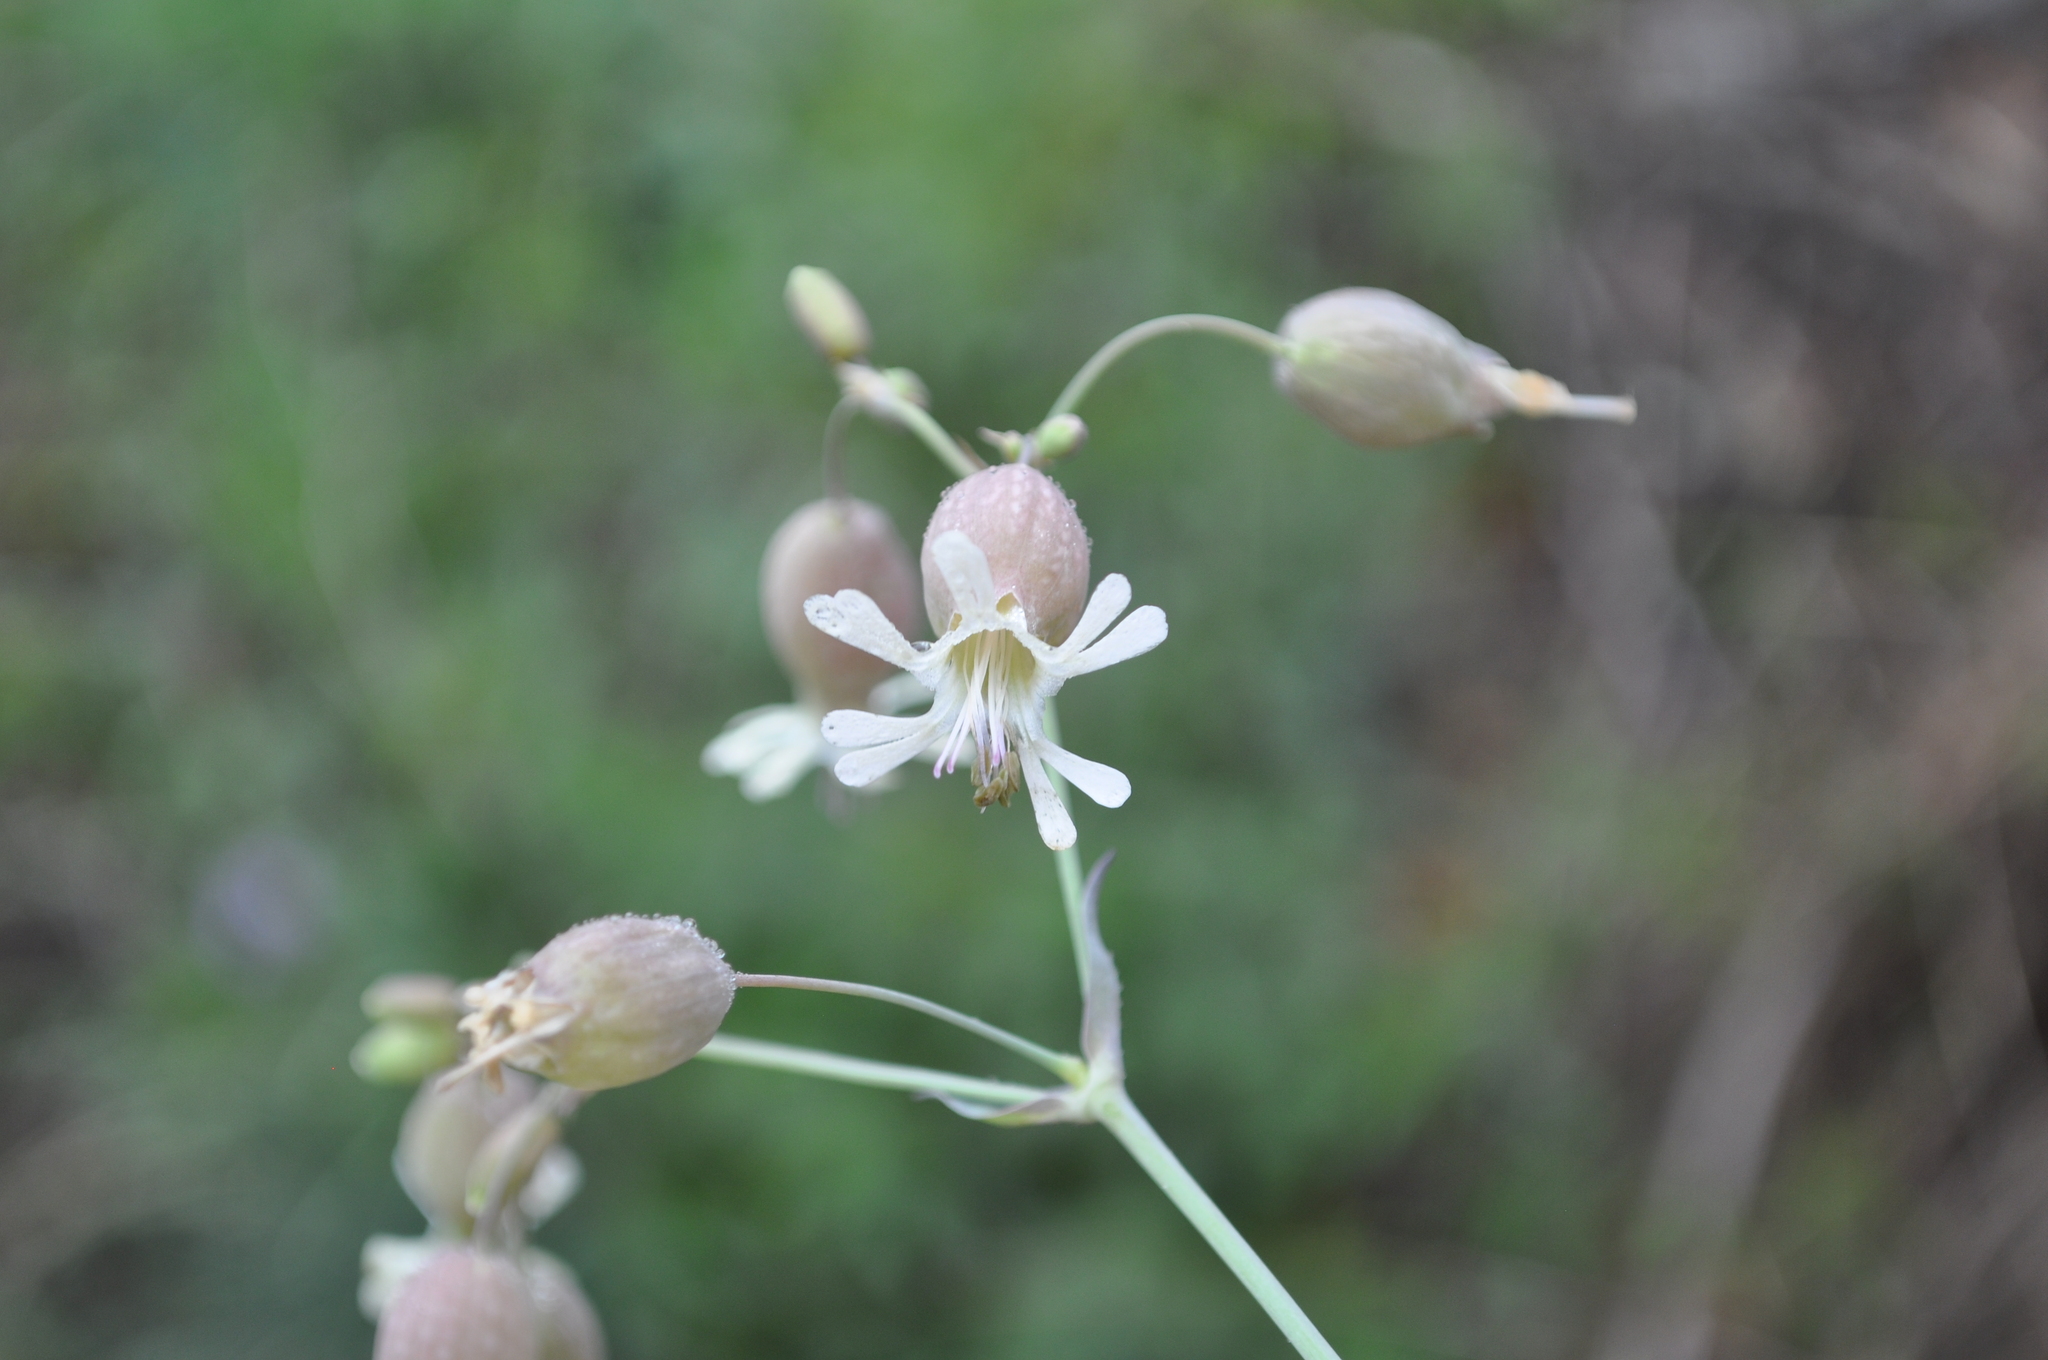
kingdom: Plantae
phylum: Tracheophyta
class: Magnoliopsida
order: Caryophyllales
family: Caryophyllaceae
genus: Silene
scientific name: Silene vulgaris
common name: Bladder campion
